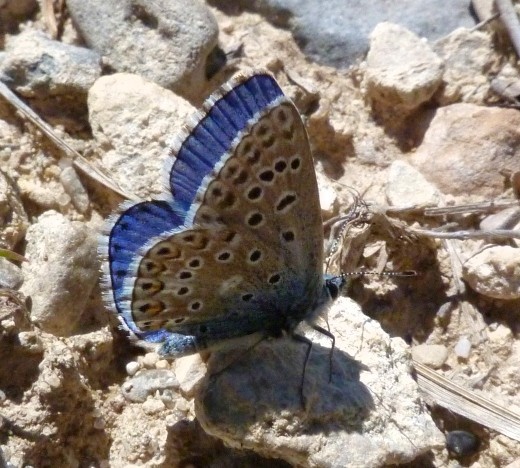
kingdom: Animalia
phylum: Arthropoda
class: Insecta
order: Lepidoptera
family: Lycaenidae
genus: Lysandra
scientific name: Lysandra bellargus
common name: Adonis blue
